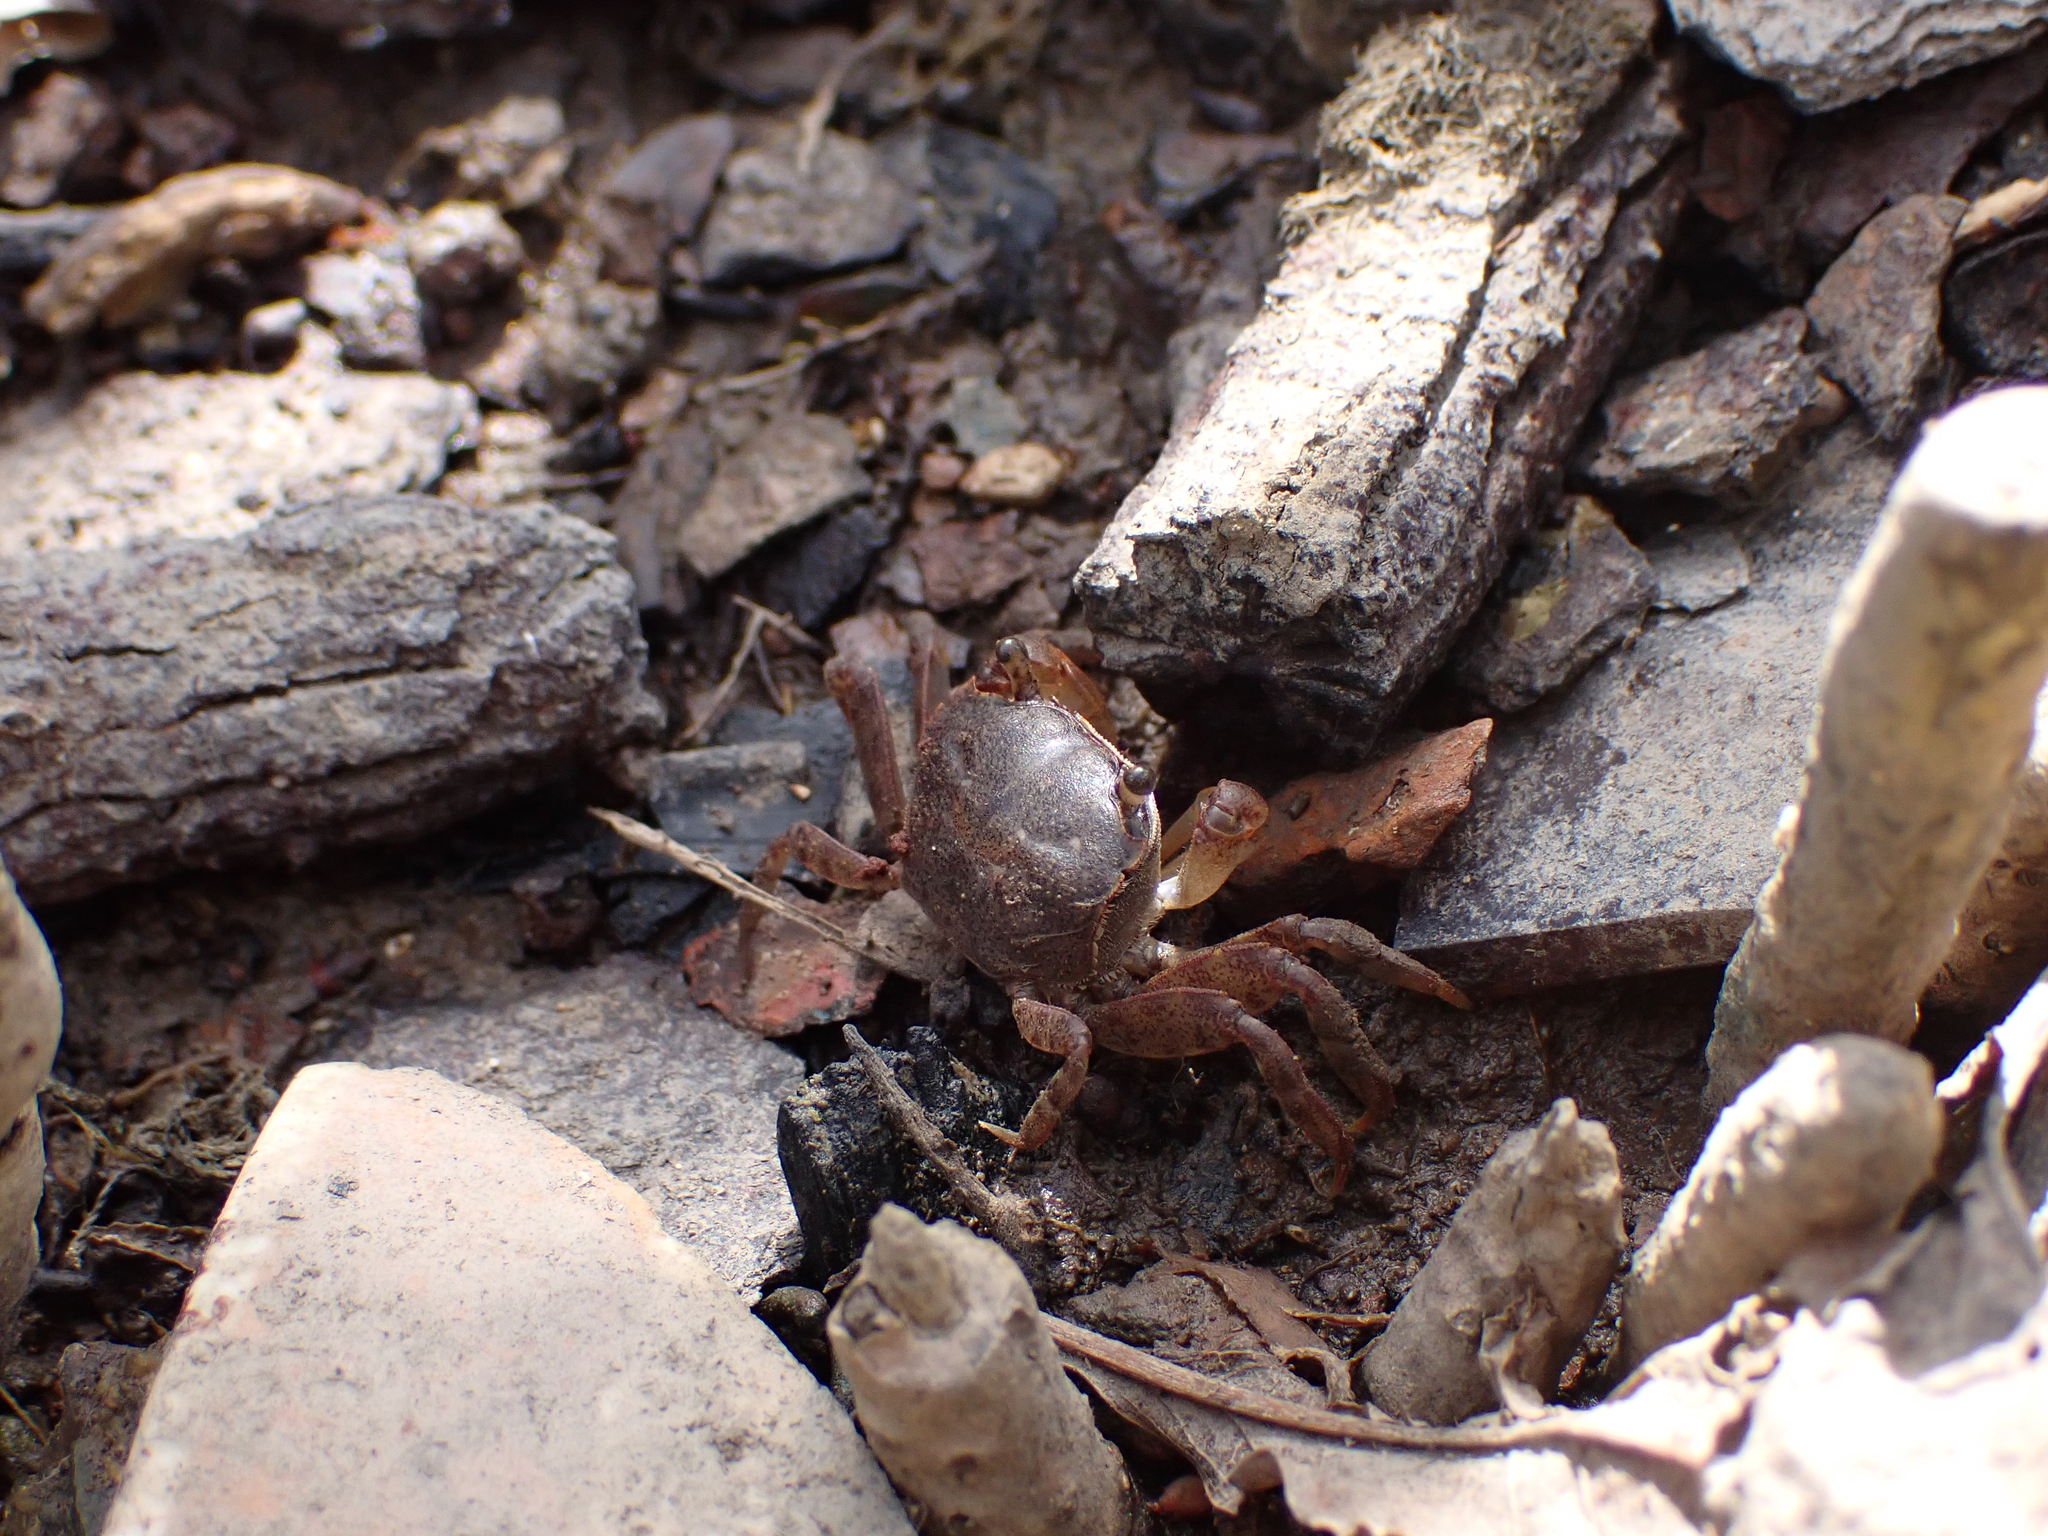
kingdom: Animalia
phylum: Arthropoda
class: Malacostraca
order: Decapoda
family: Varunidae
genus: Austrohelice
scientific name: Austrohelice crassa
